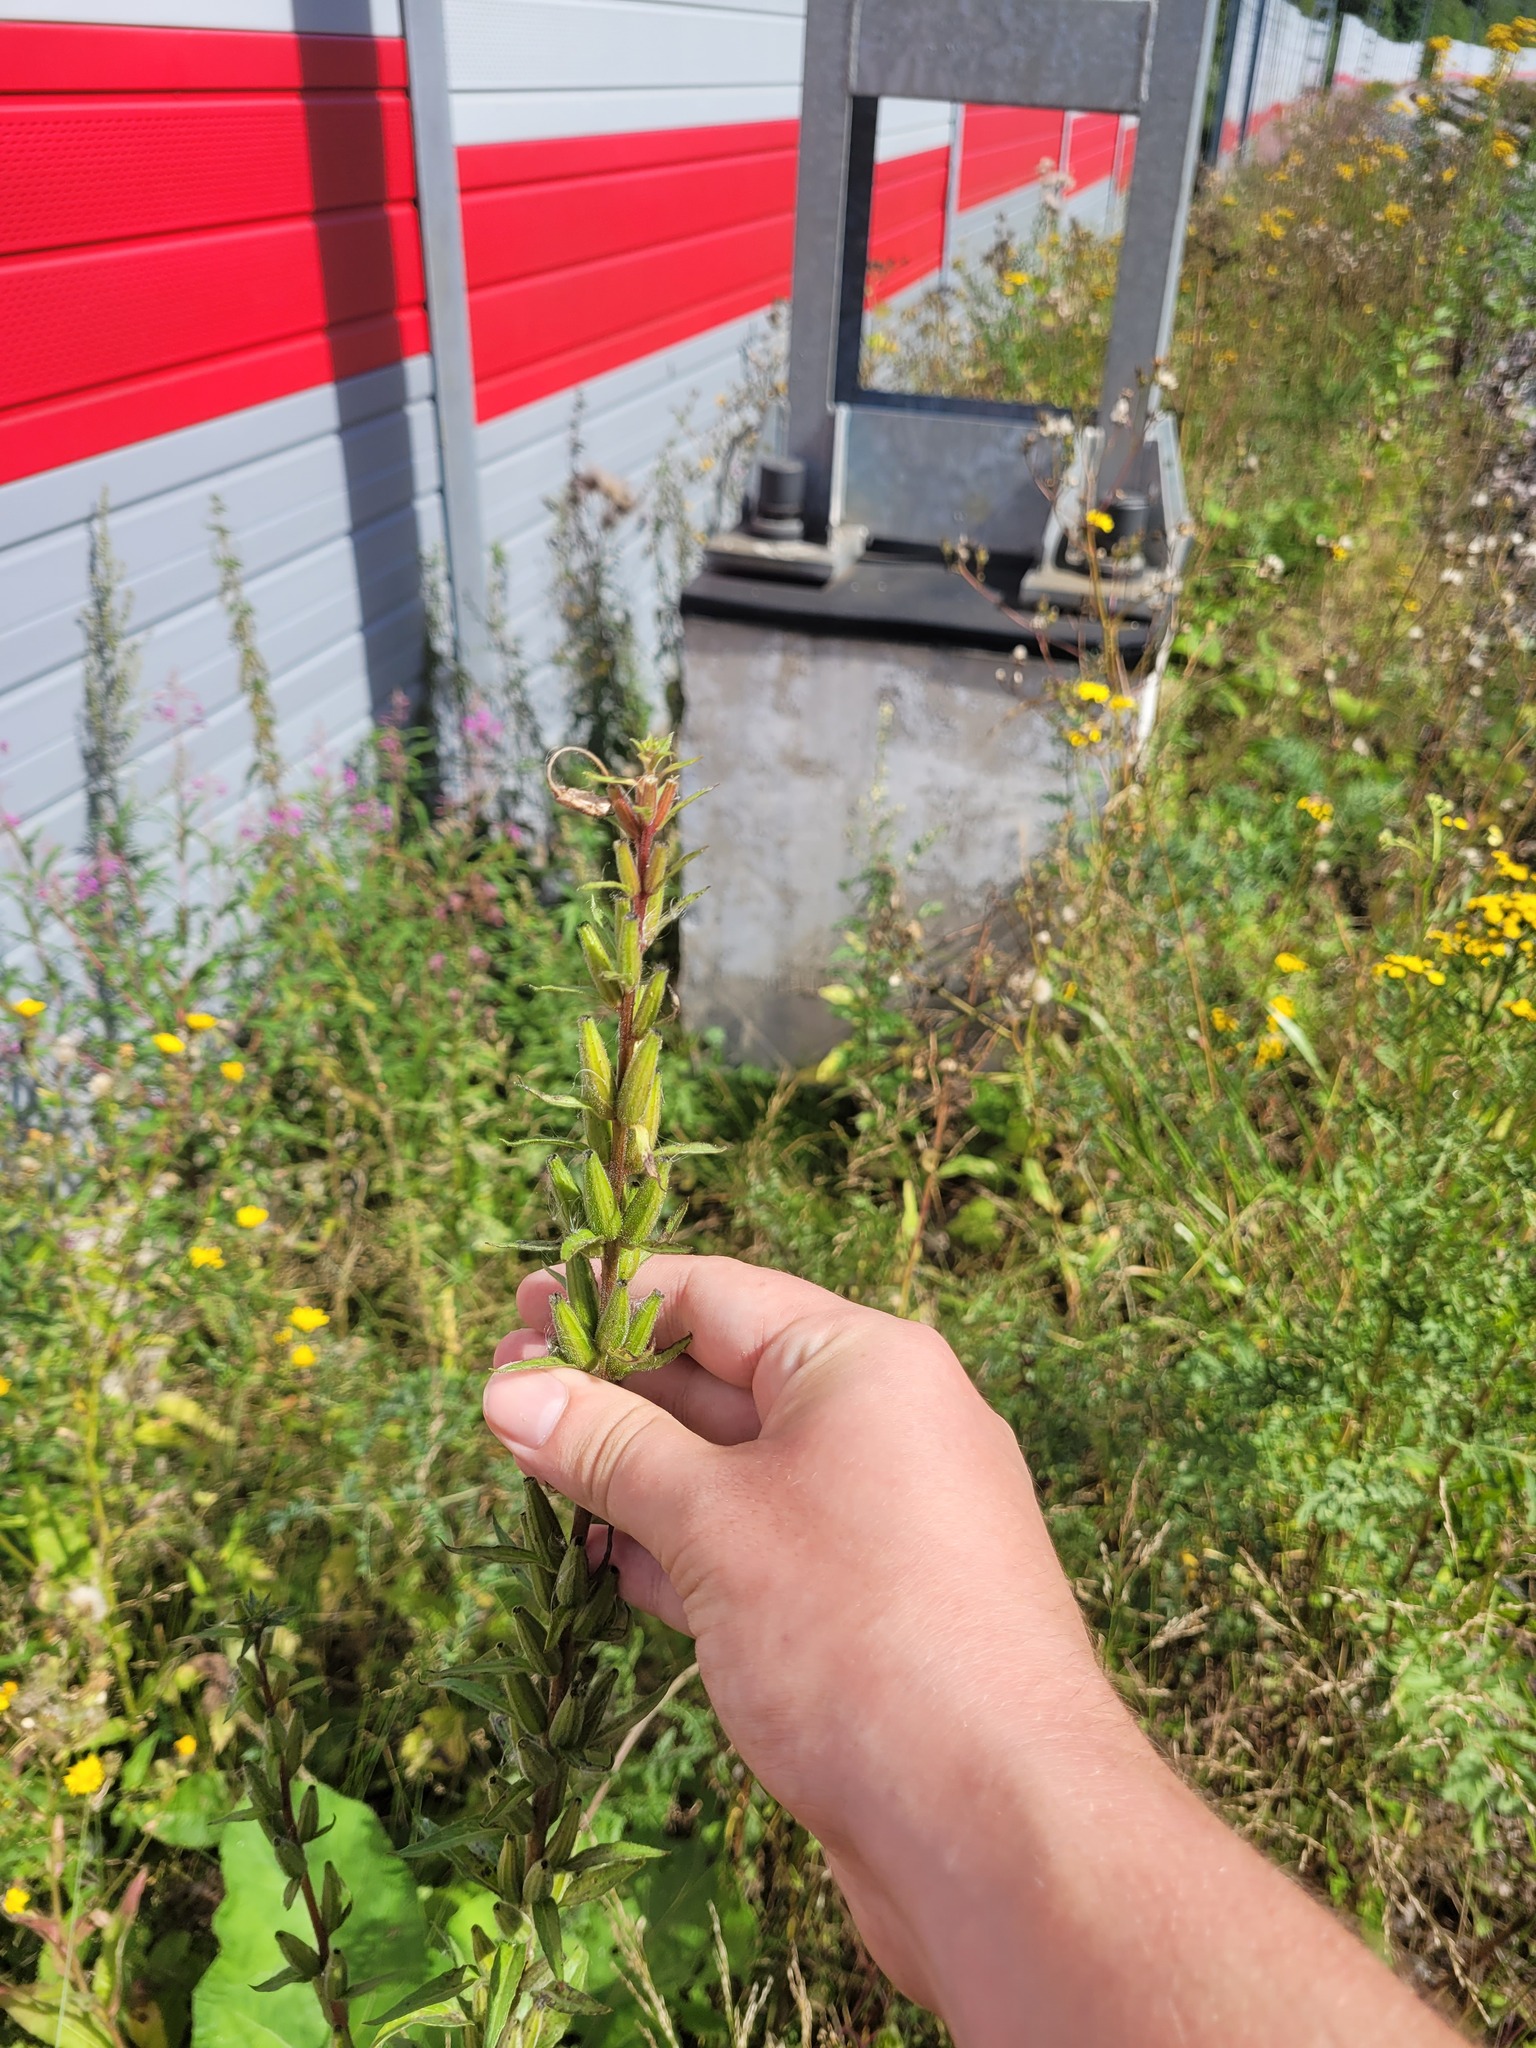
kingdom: Plantae
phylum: Tracheophyta
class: Magnoliopsida
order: Myrtales
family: Onagraceae
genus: Oenothera
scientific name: Oenothera rubricaulis
